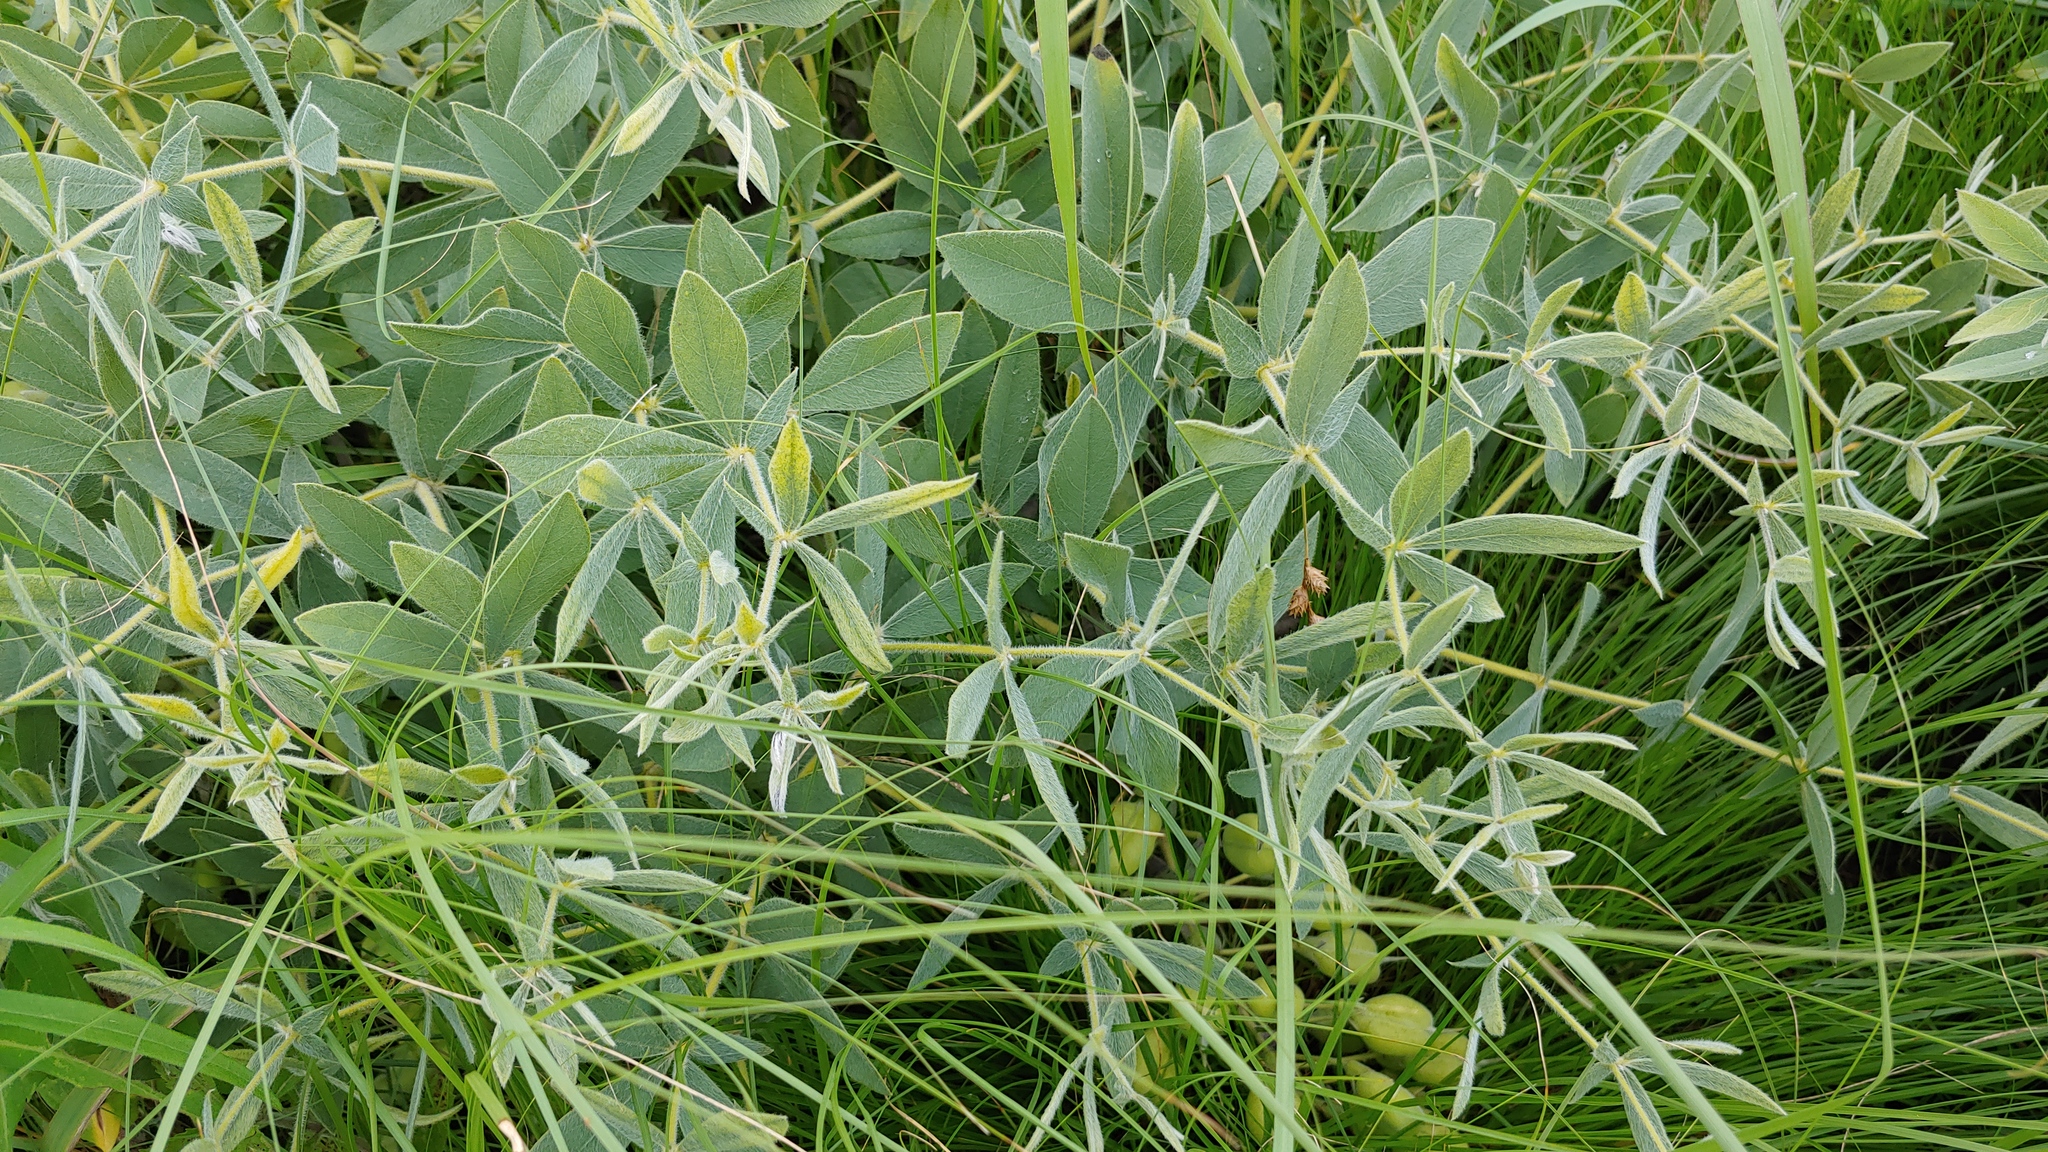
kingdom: Plantae
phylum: Tracheophyta
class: Magnoliopsida
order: Fabales
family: Fabaceae
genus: Baptisia
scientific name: Baptisia bracteata
